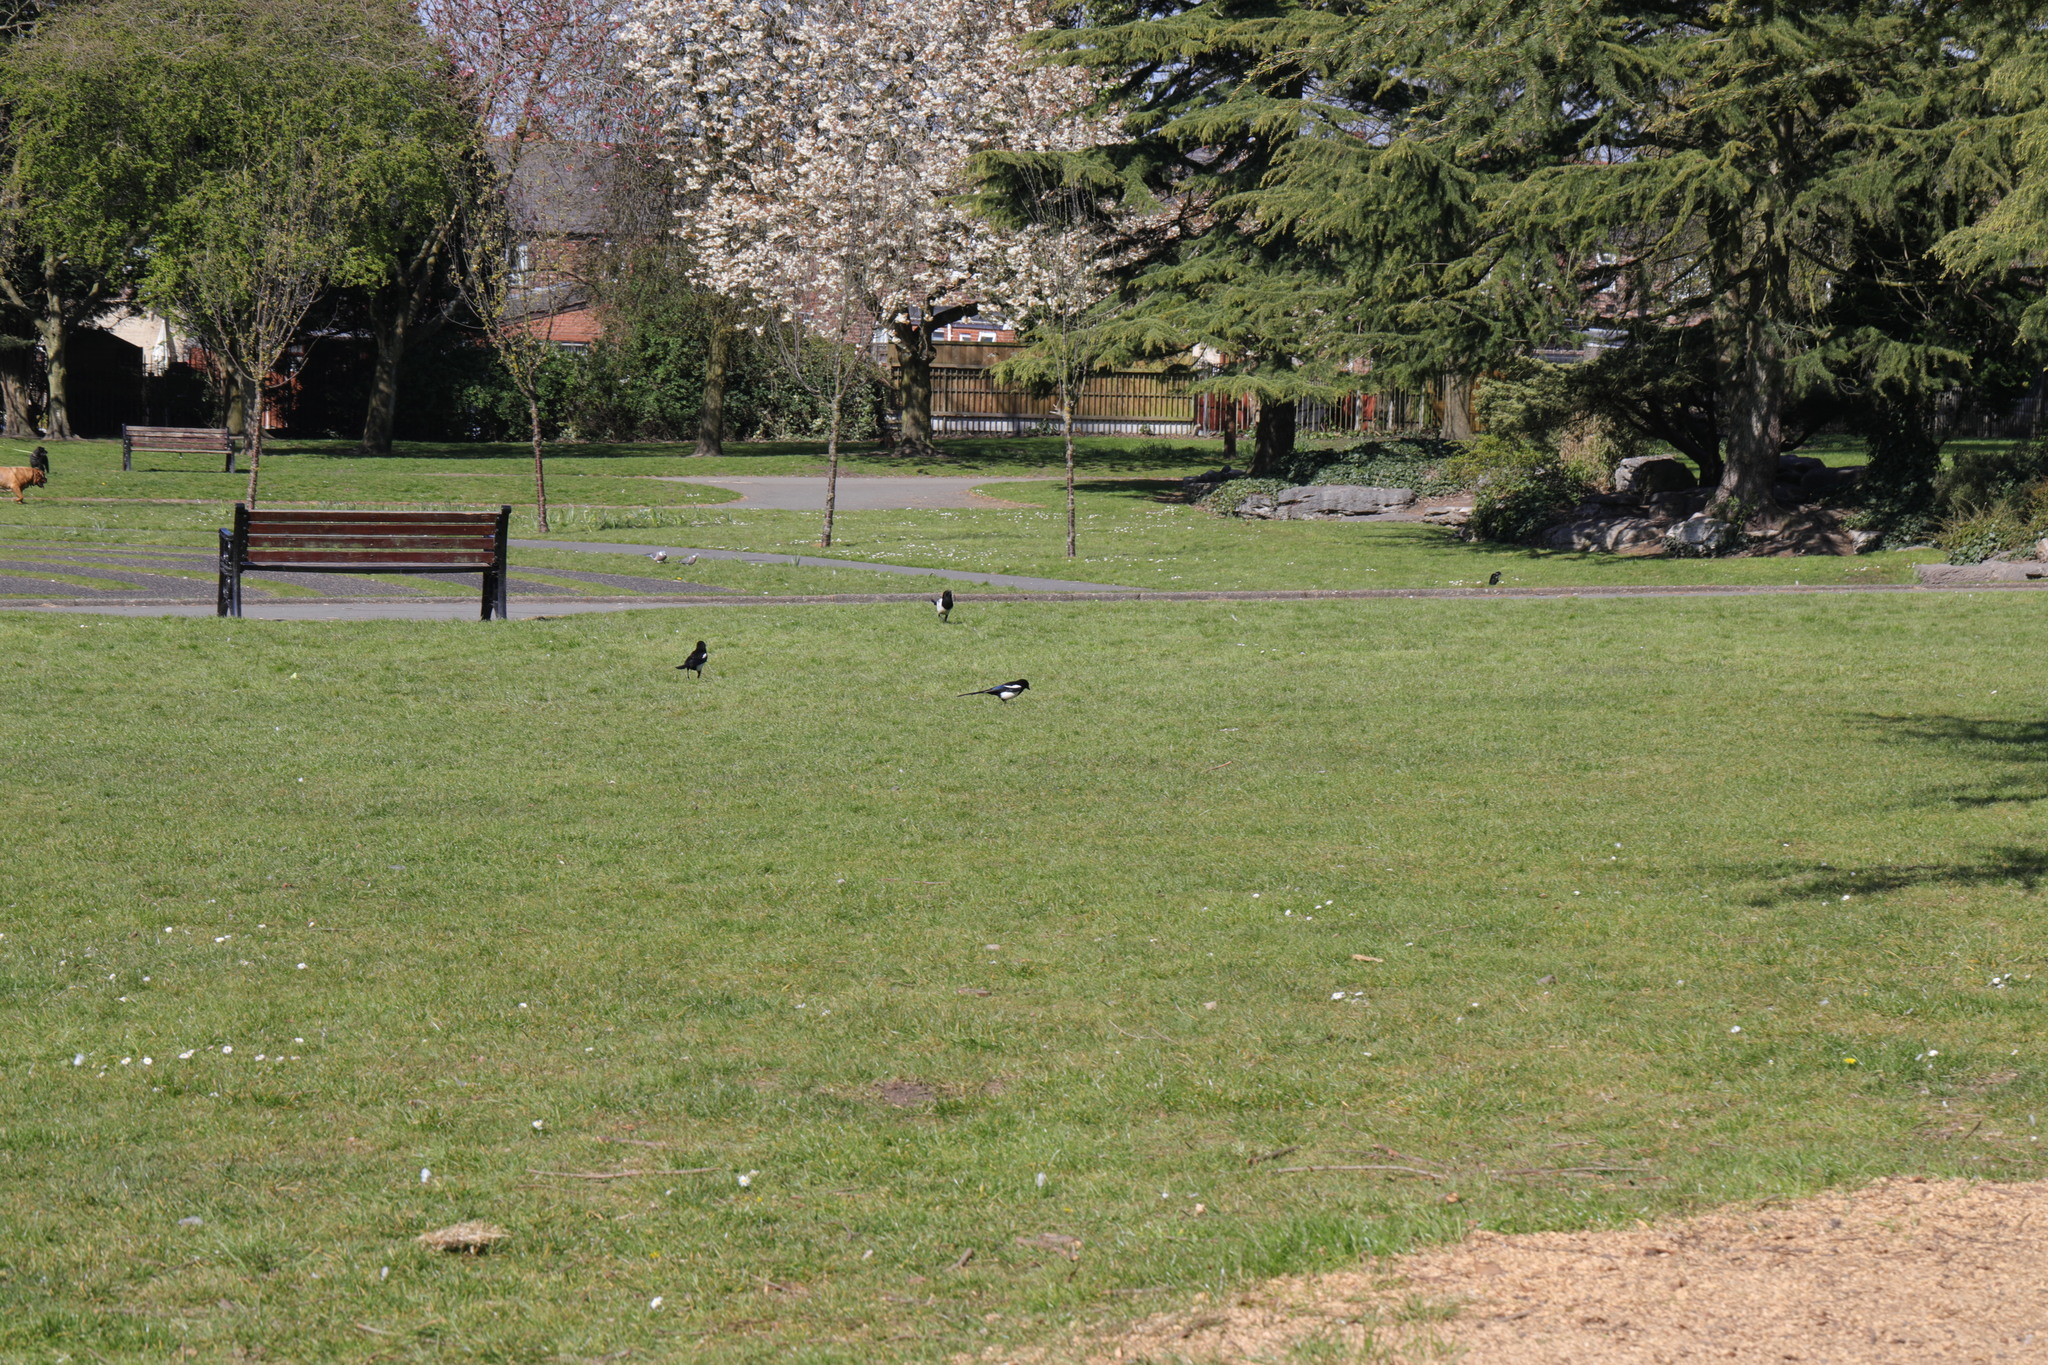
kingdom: Animalia
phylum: Chordata
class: Aves
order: Passeriformes
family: Corvidae
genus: Pica
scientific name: Pica pica
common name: Eurasian magpie
